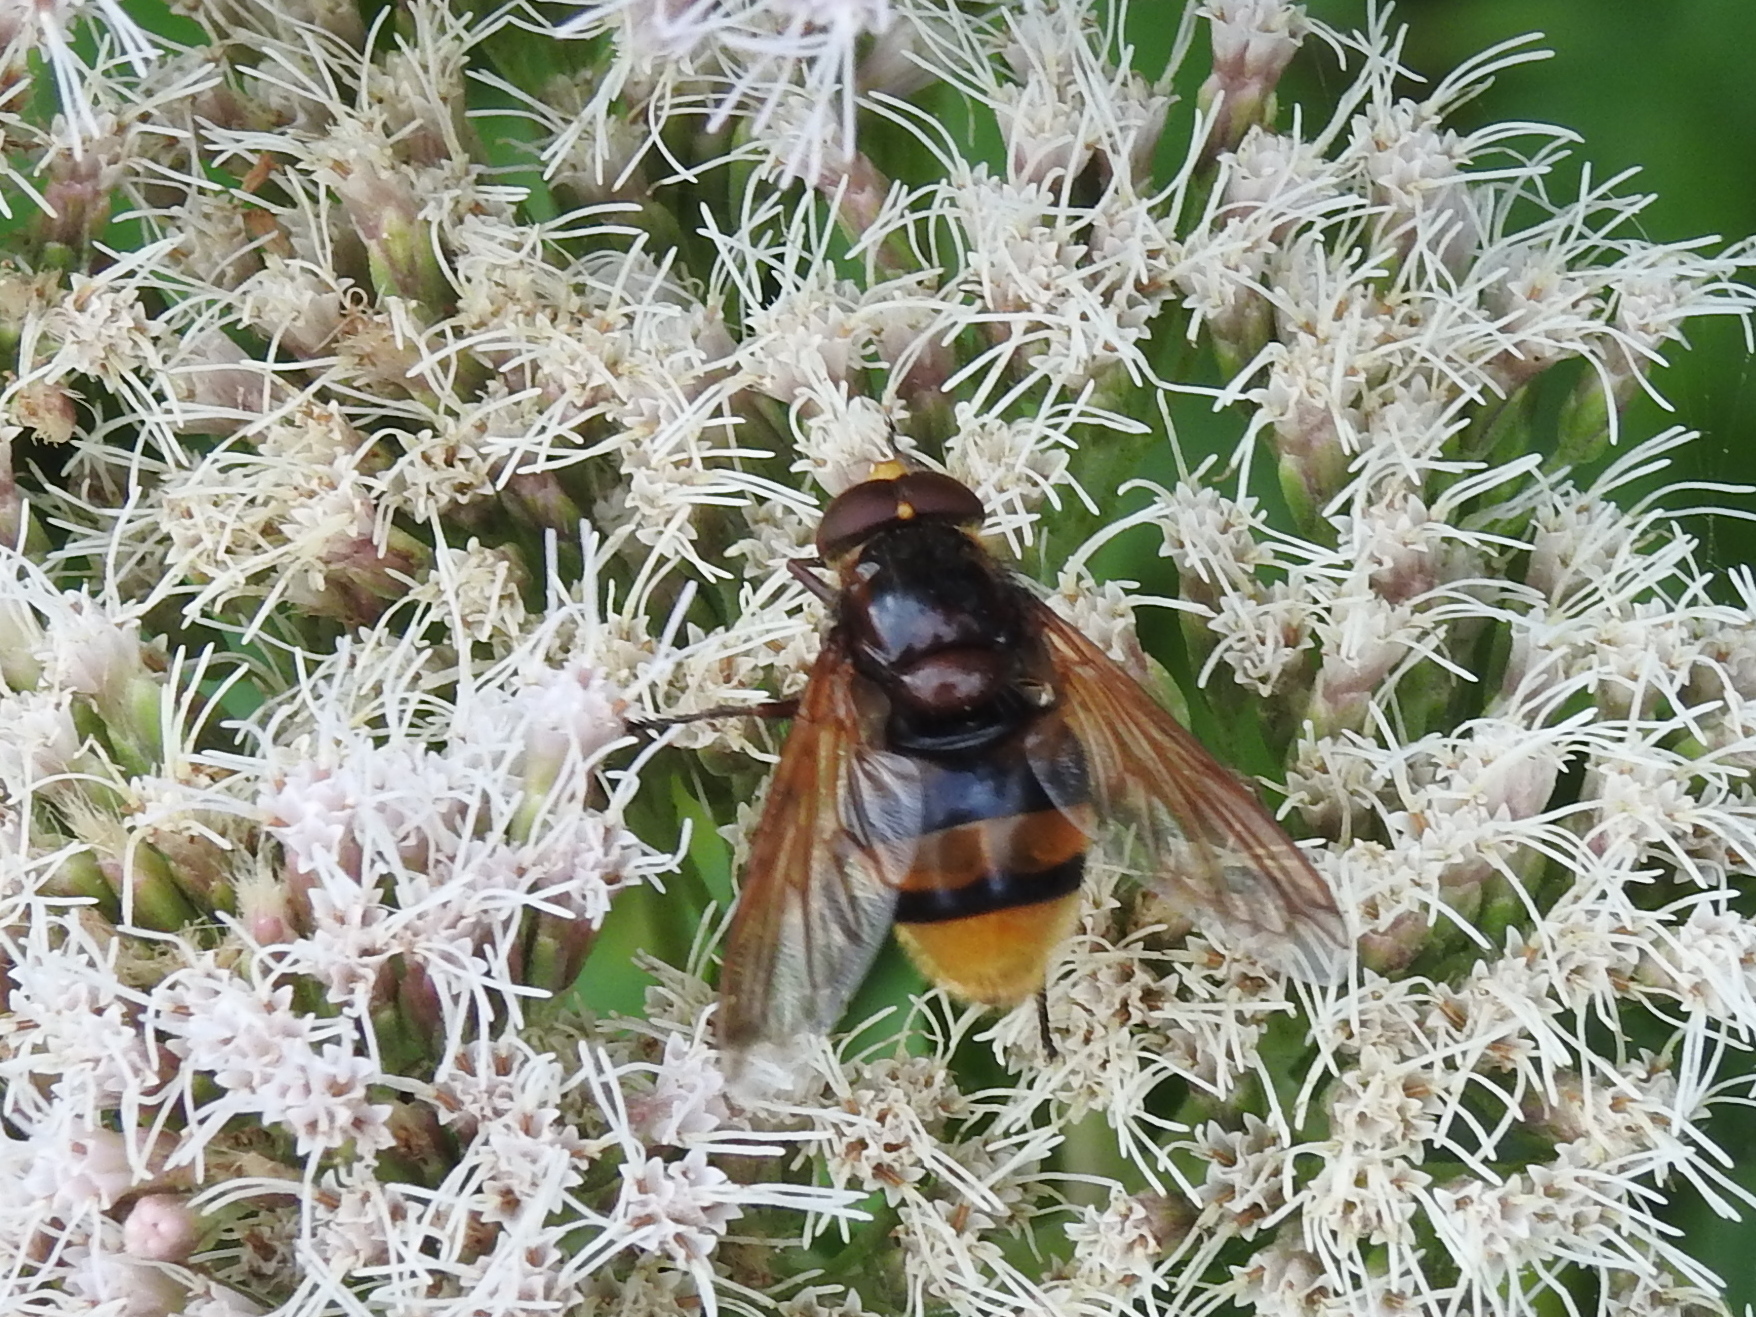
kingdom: Animalia
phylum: Arthropoda
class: Insecta
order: Diptera
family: Syrphidae
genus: Volucella
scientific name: Volucella zonaria
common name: Hornet hoverfly
